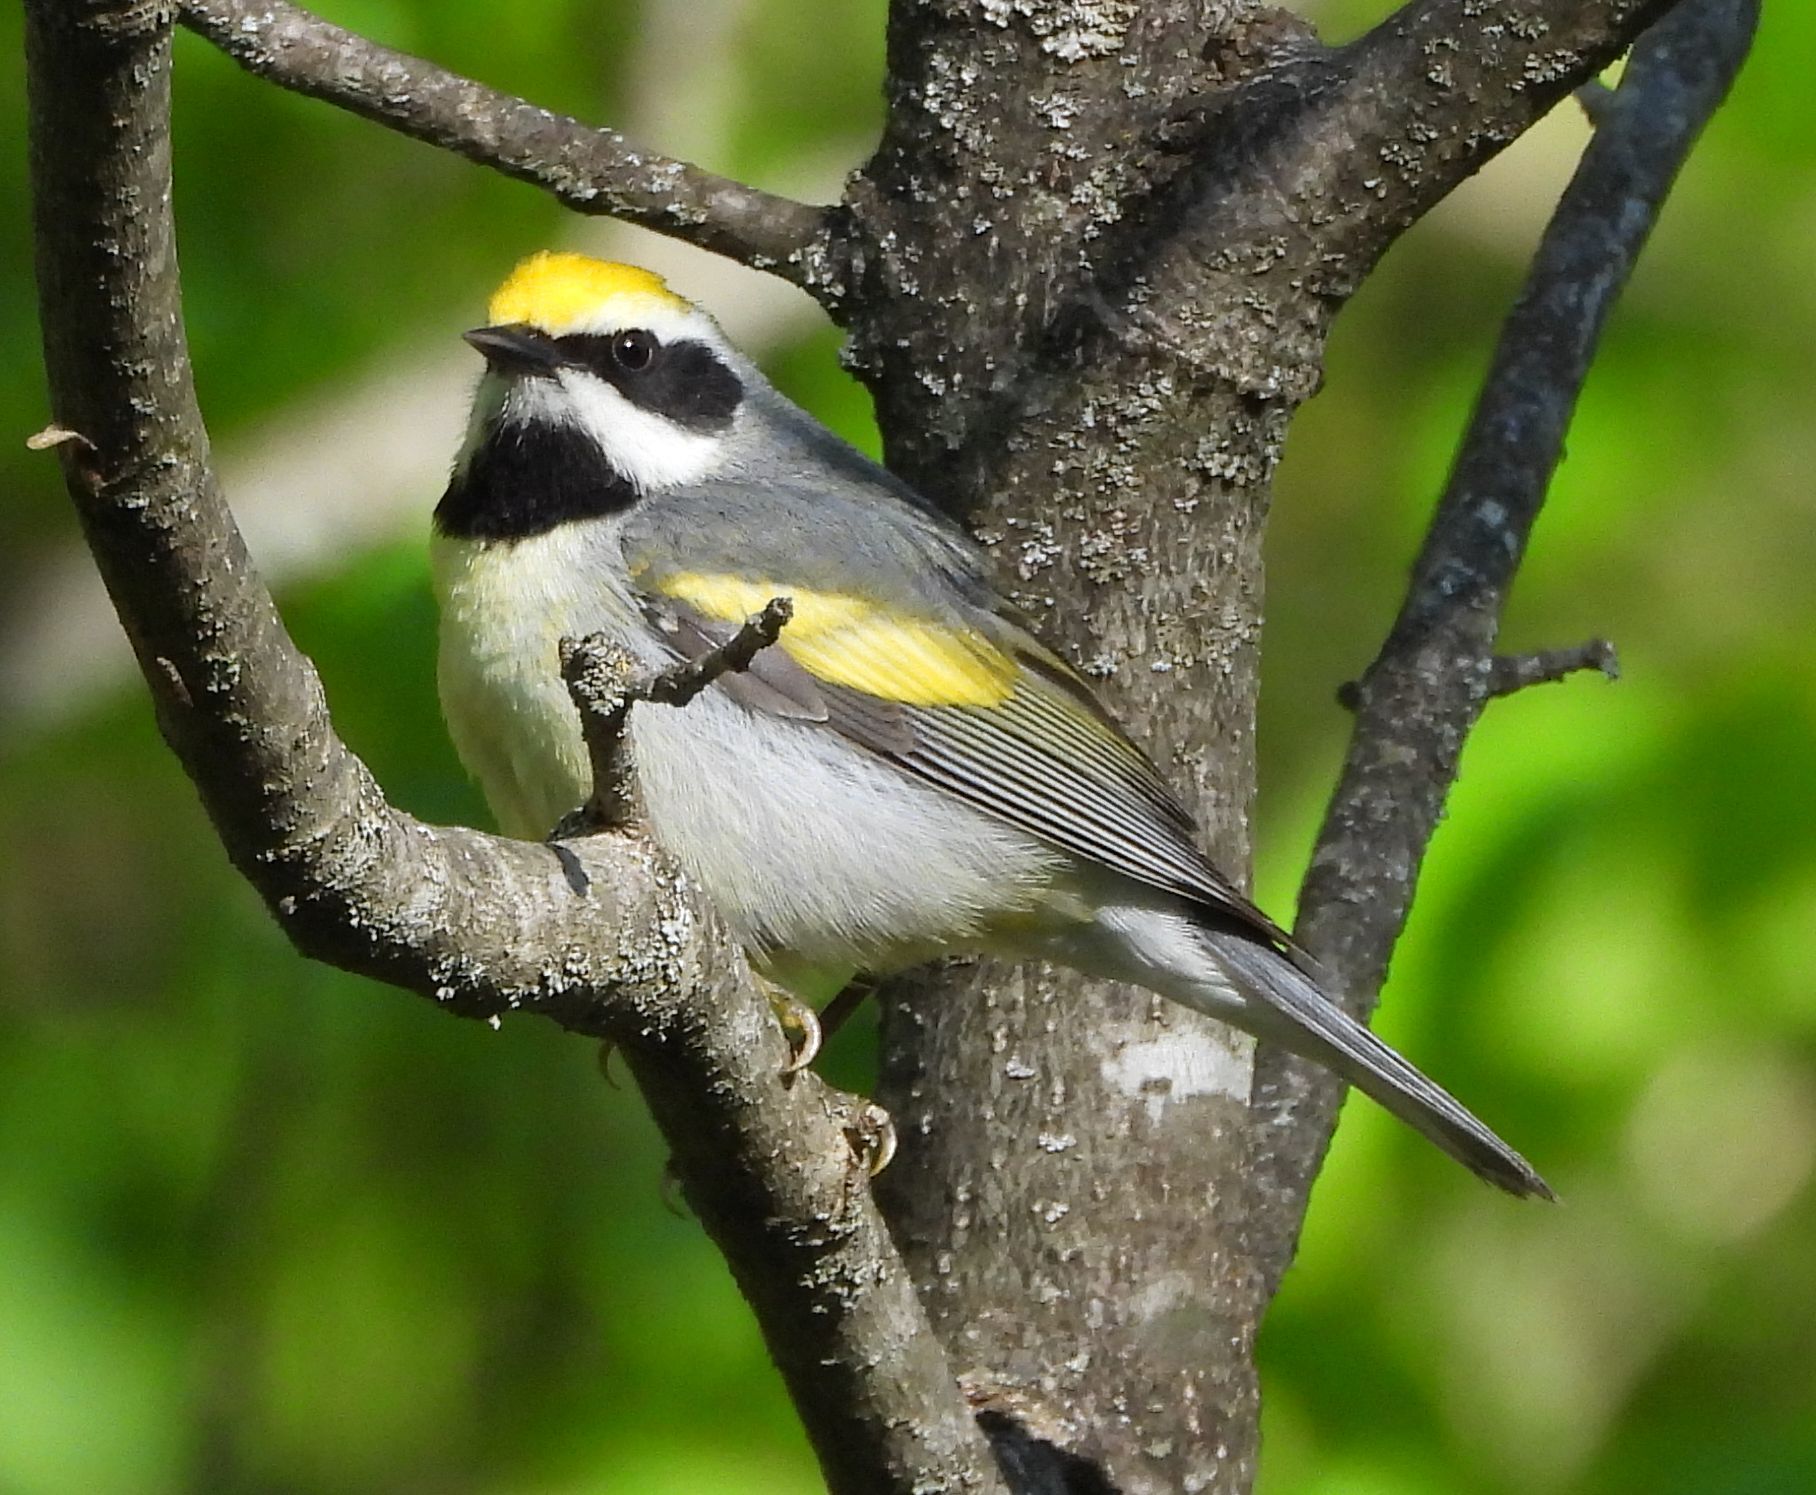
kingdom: Animalia
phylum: Chordata
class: Aves
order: Passeriformes
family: Parulidae
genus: Vermivora
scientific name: Vermivora chrysoptera
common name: Golden-winged warbler
